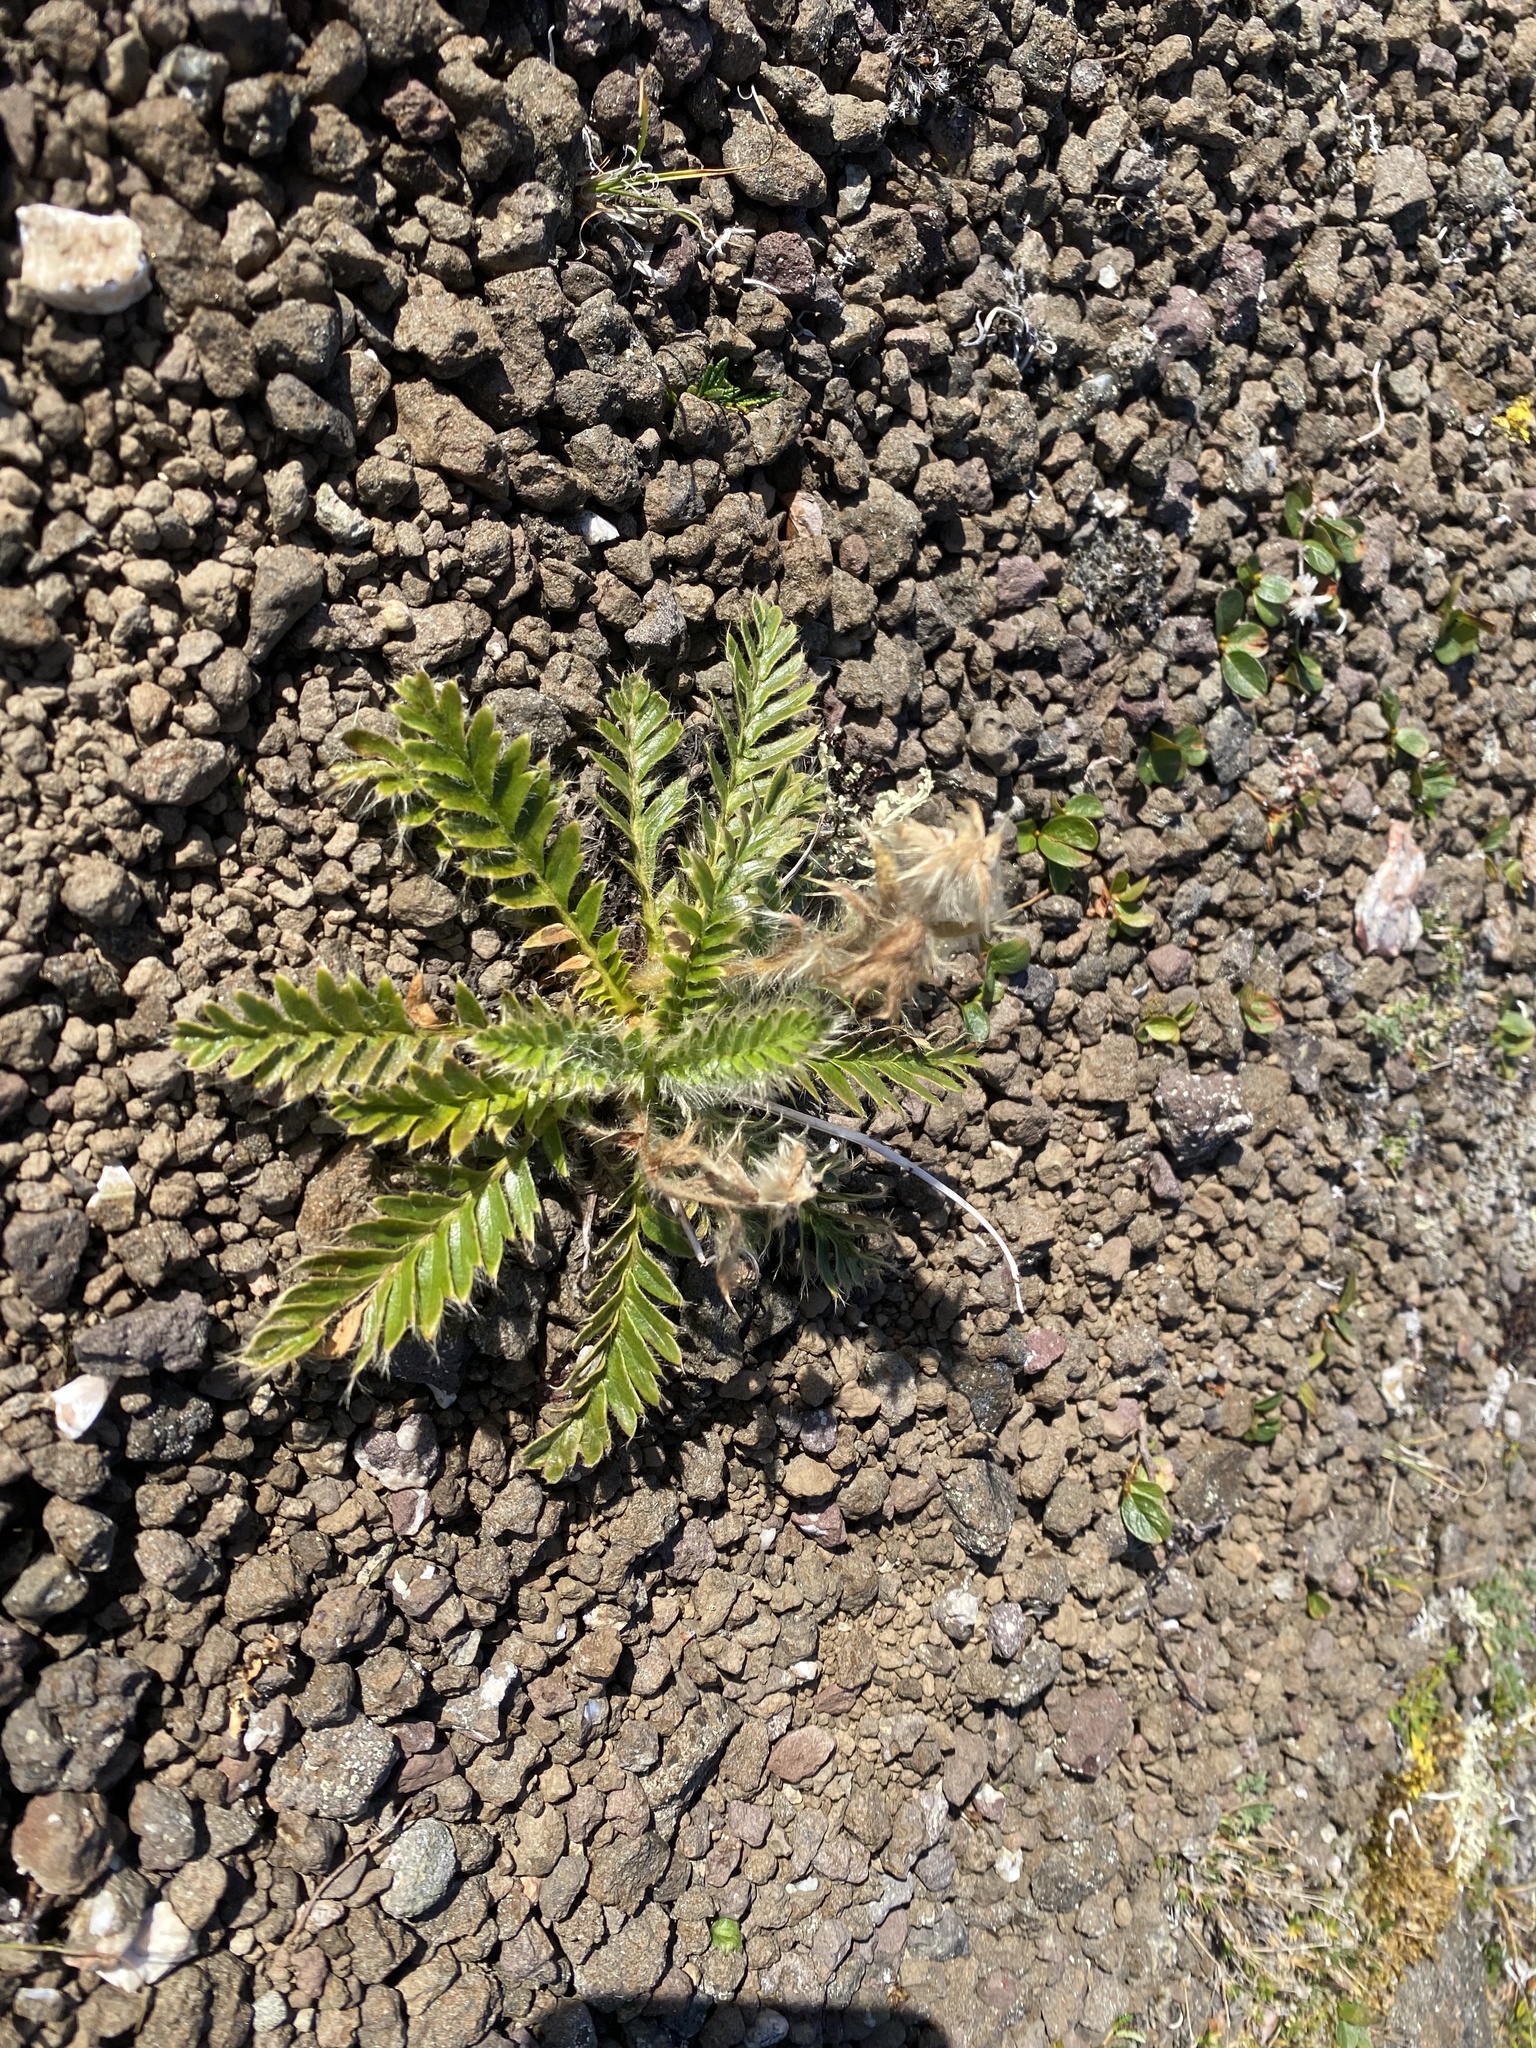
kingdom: Plantae
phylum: Tracheophyta
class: Magnoliopsida
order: Rosales
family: Rosaceae
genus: Geum
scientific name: Geum glaciale
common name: Glacier avens
